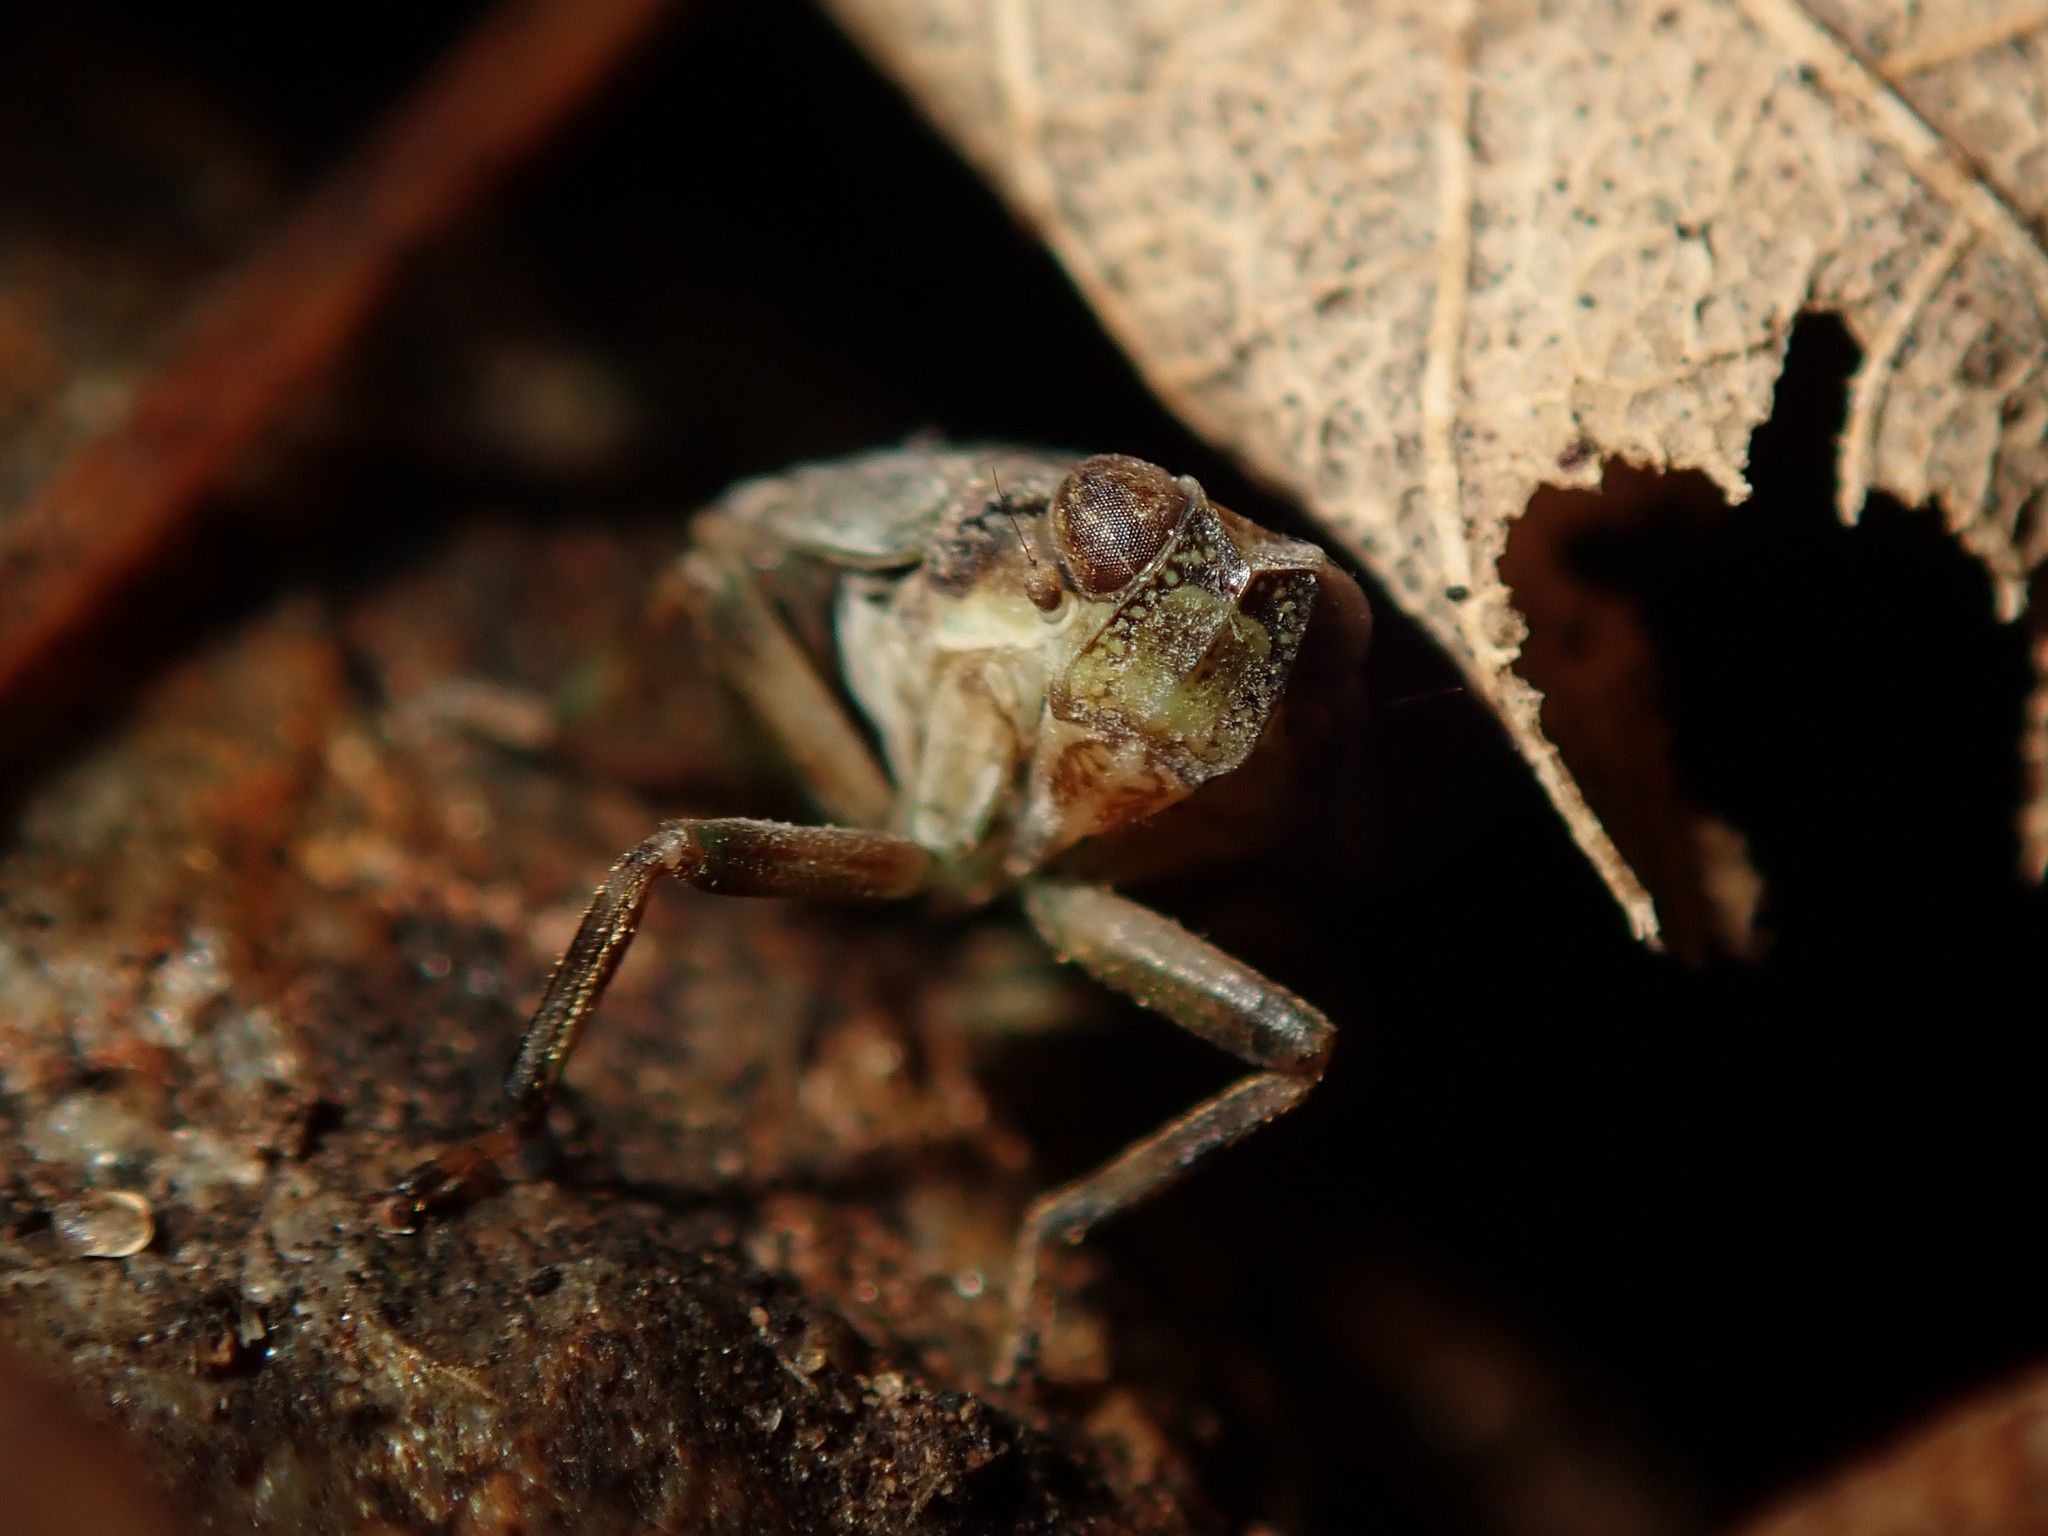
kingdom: Animalia
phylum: Arthropoda
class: Insecta
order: Hemiptera
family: Issidae
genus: Issus
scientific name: Issus coleoptratus
